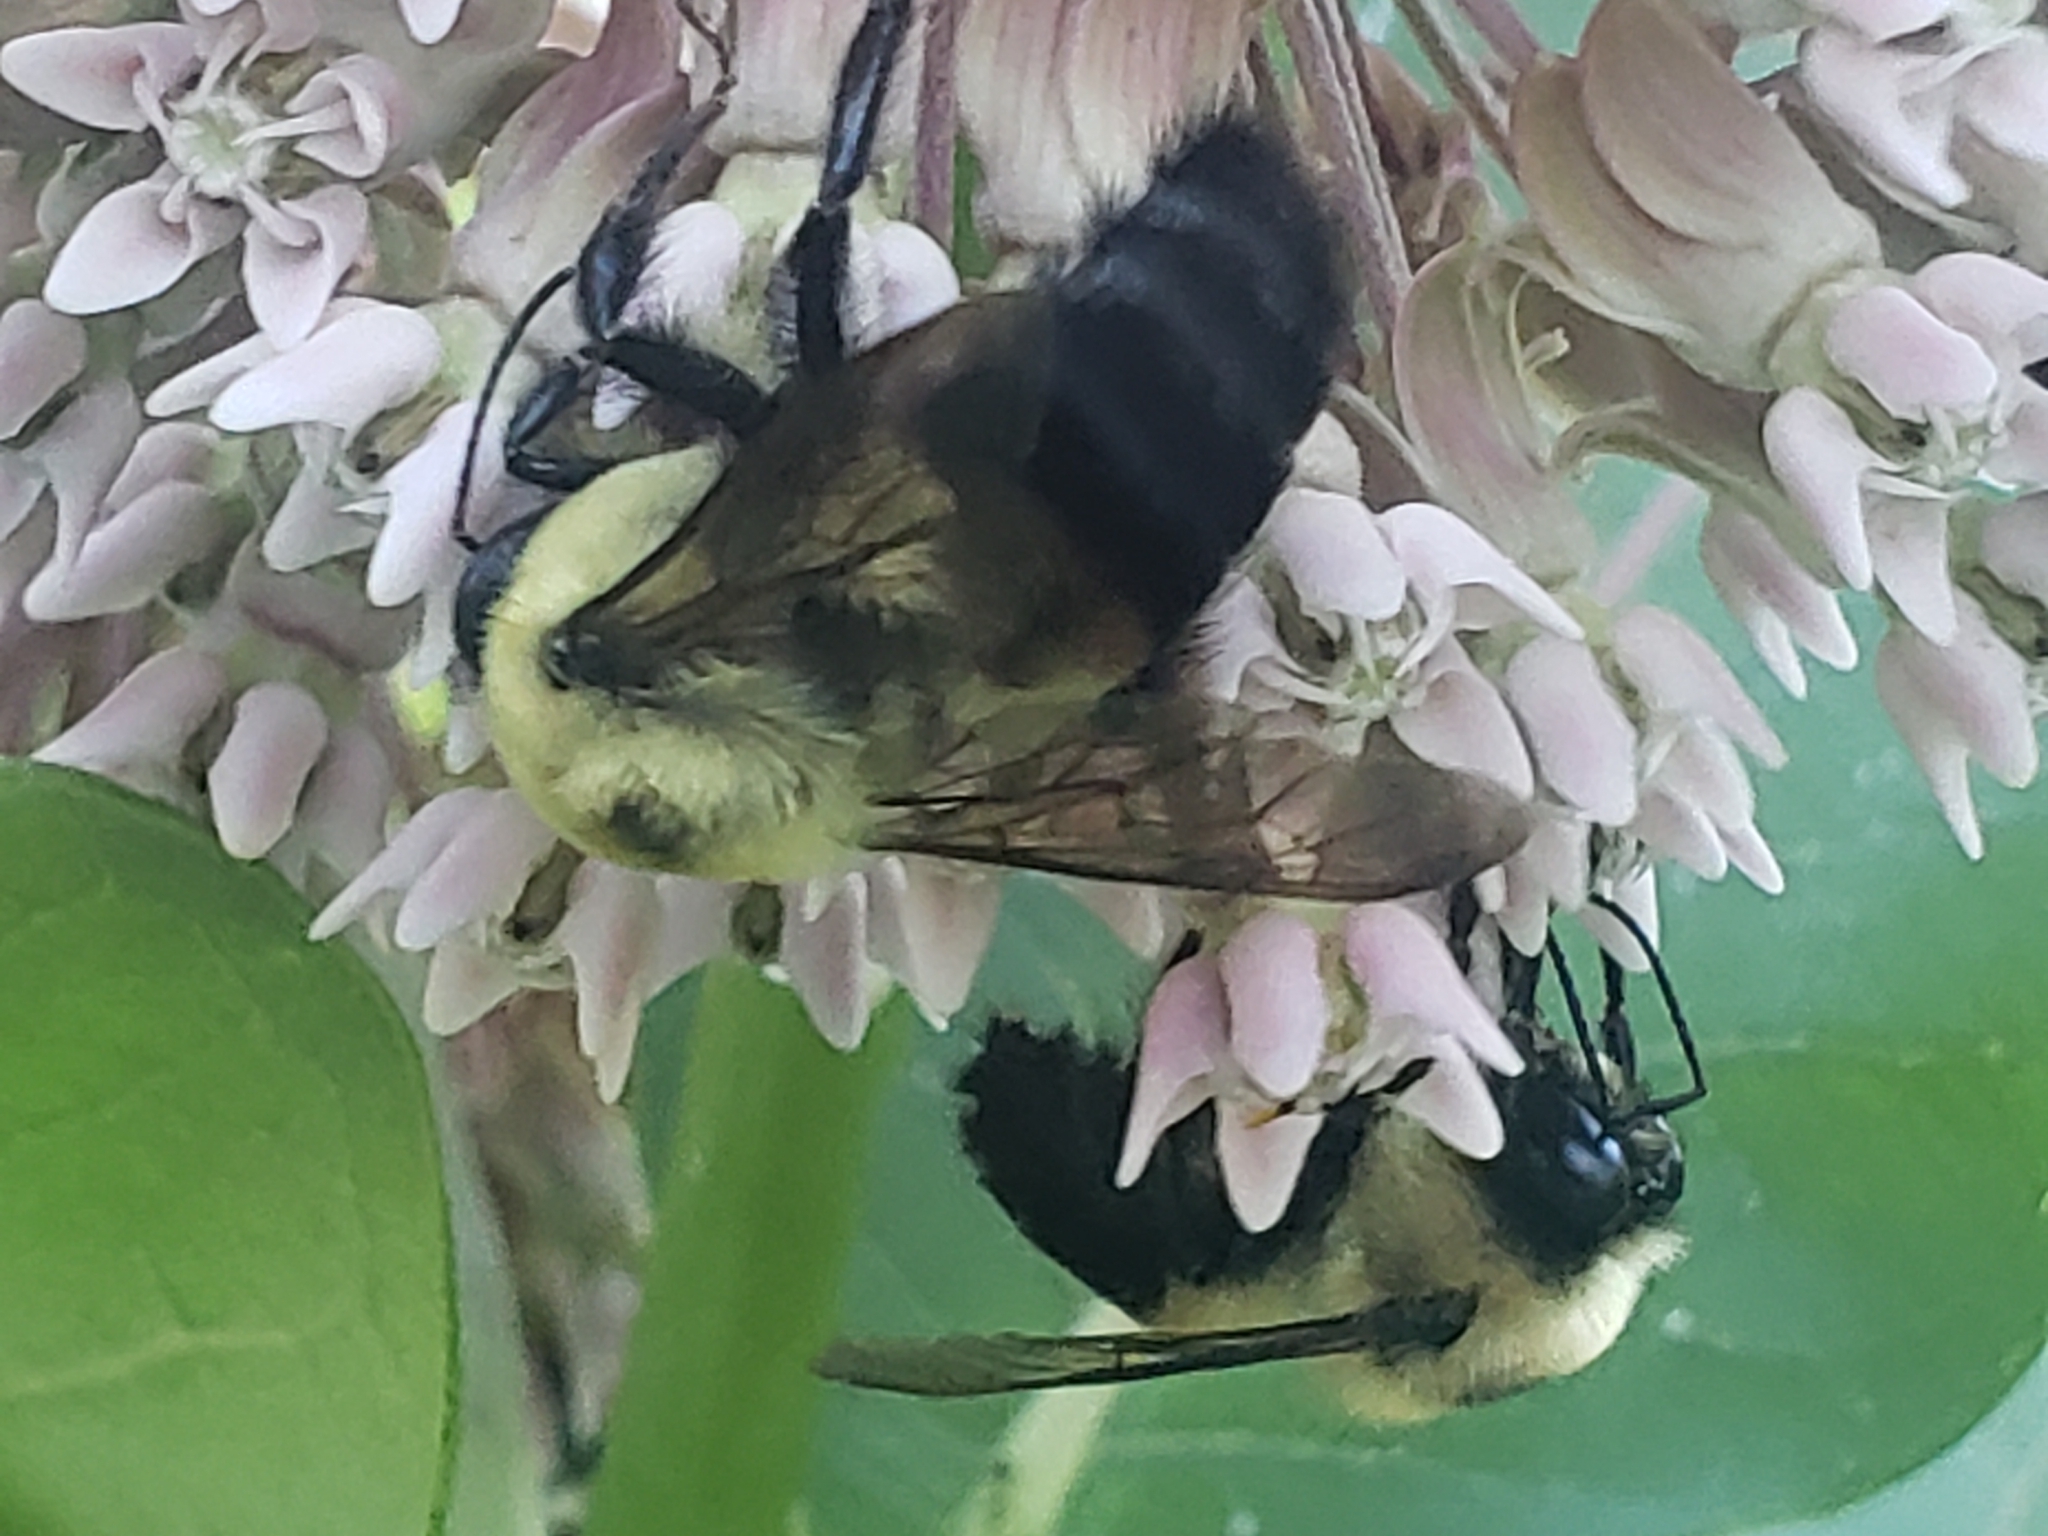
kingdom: Animalia
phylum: Arthropoda
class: Insecta
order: Hymenoptera
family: Apidae
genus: Bombus
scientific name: Bombus griseocollis
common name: Brown-belted bumble bee
